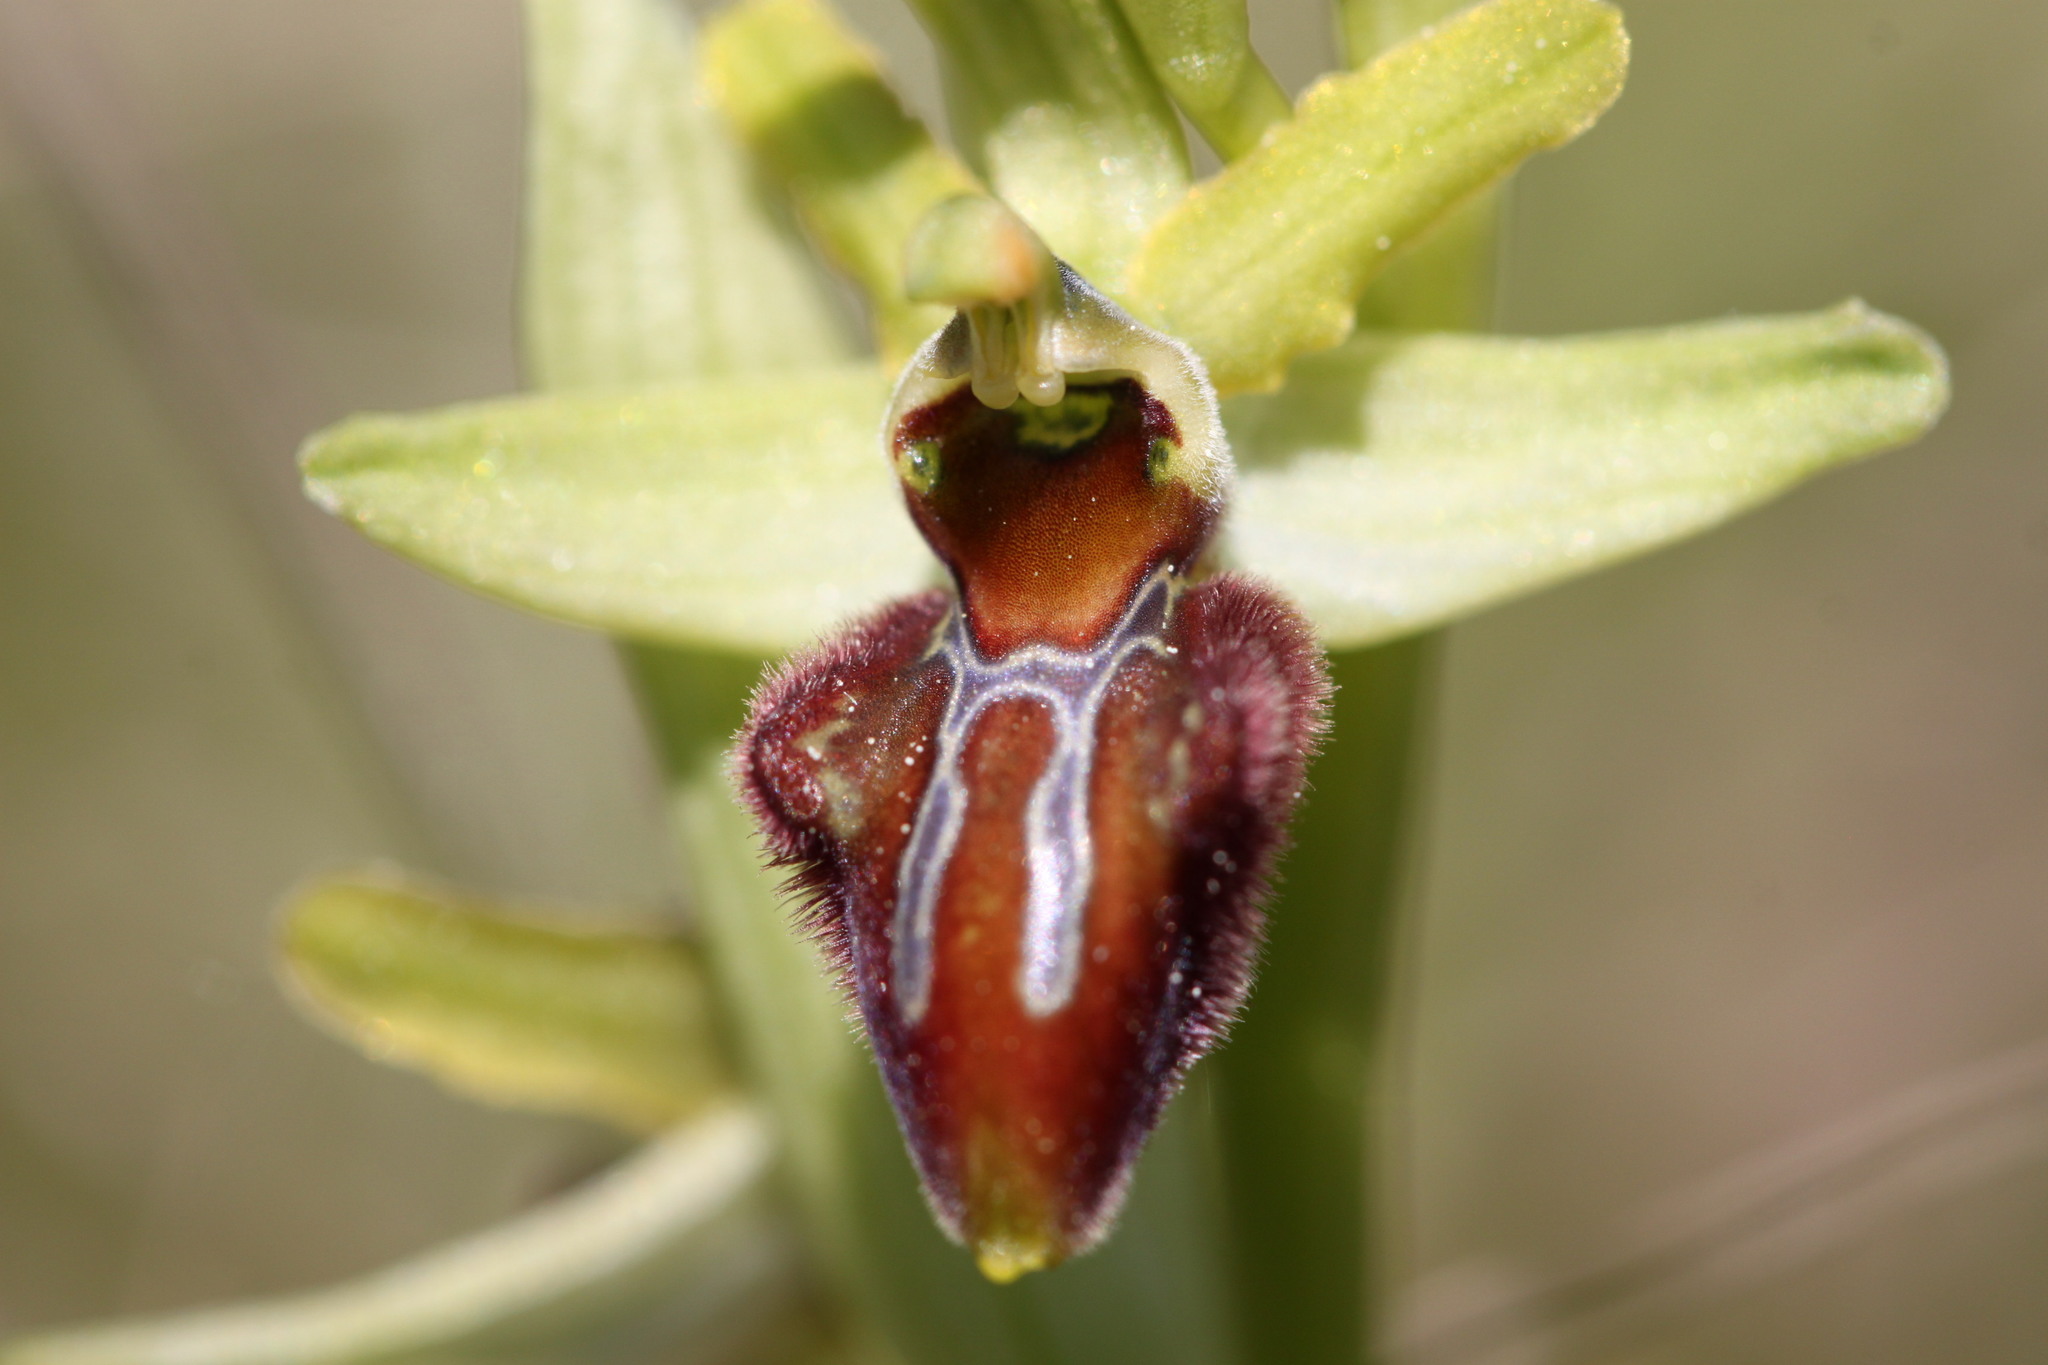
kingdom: Plantae
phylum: Tracheophyta
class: Liliopsida
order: Asparagales
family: Orchidaceae
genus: Ophrys
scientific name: Ophrys sphegodes
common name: Early spider-orchid
